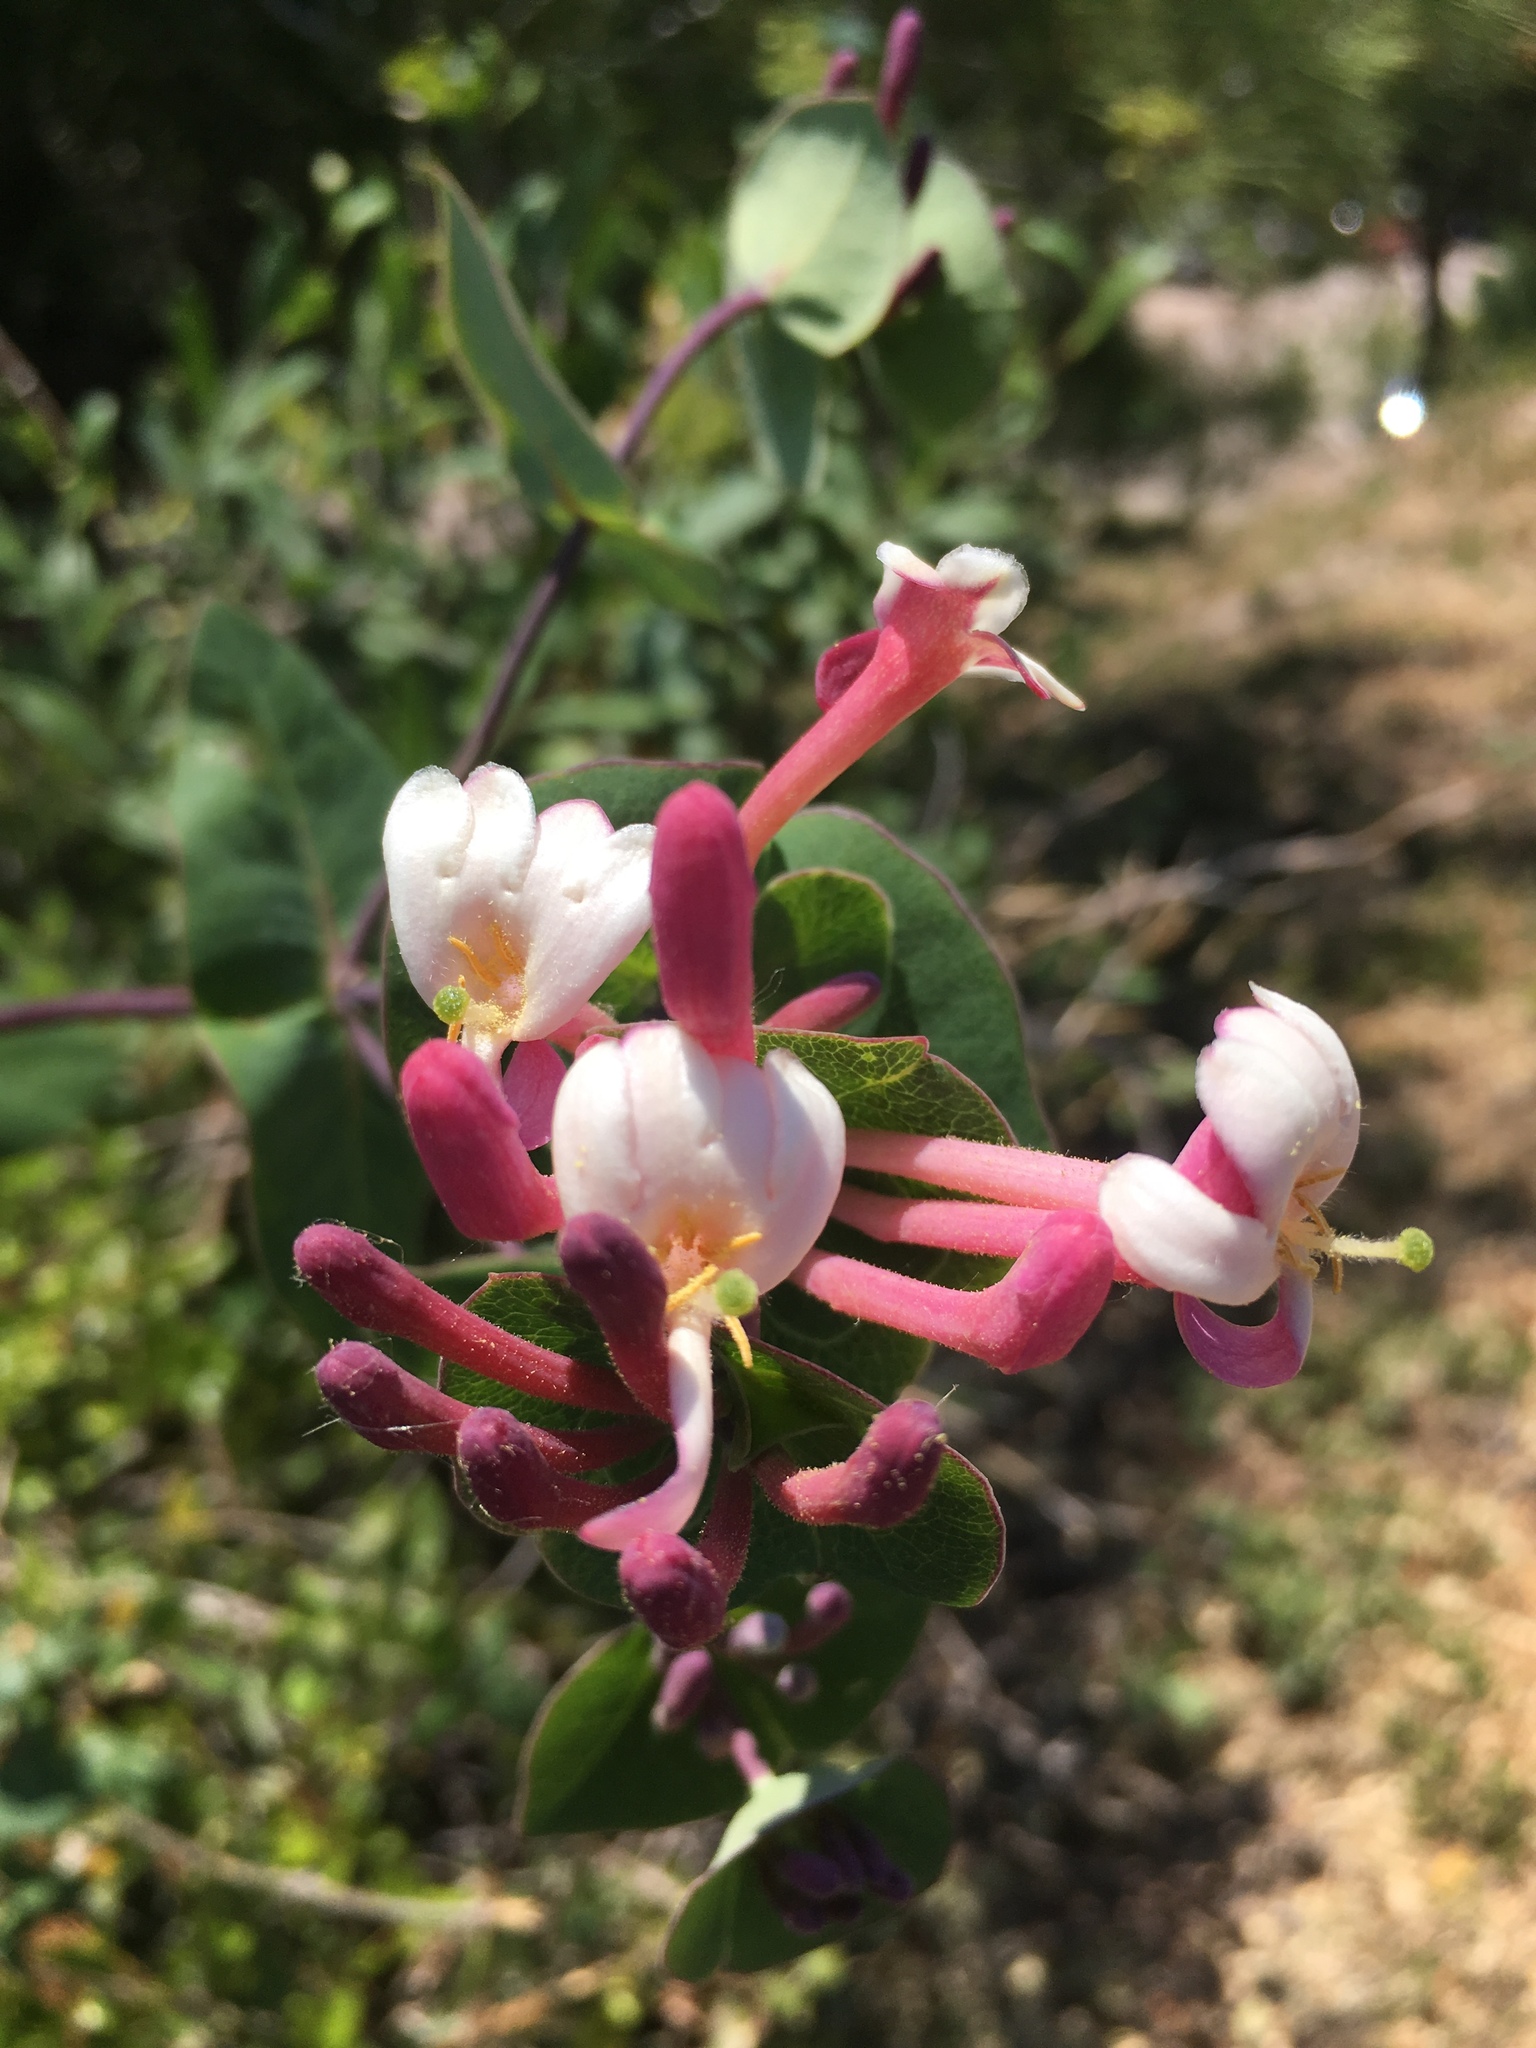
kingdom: Plantae
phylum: Tracheophyta
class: Magnoliopsida
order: Dipsacales
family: Caprifoliaceae
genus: Lonicera
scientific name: Lonicera implexa
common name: Minorca honeysuckle
